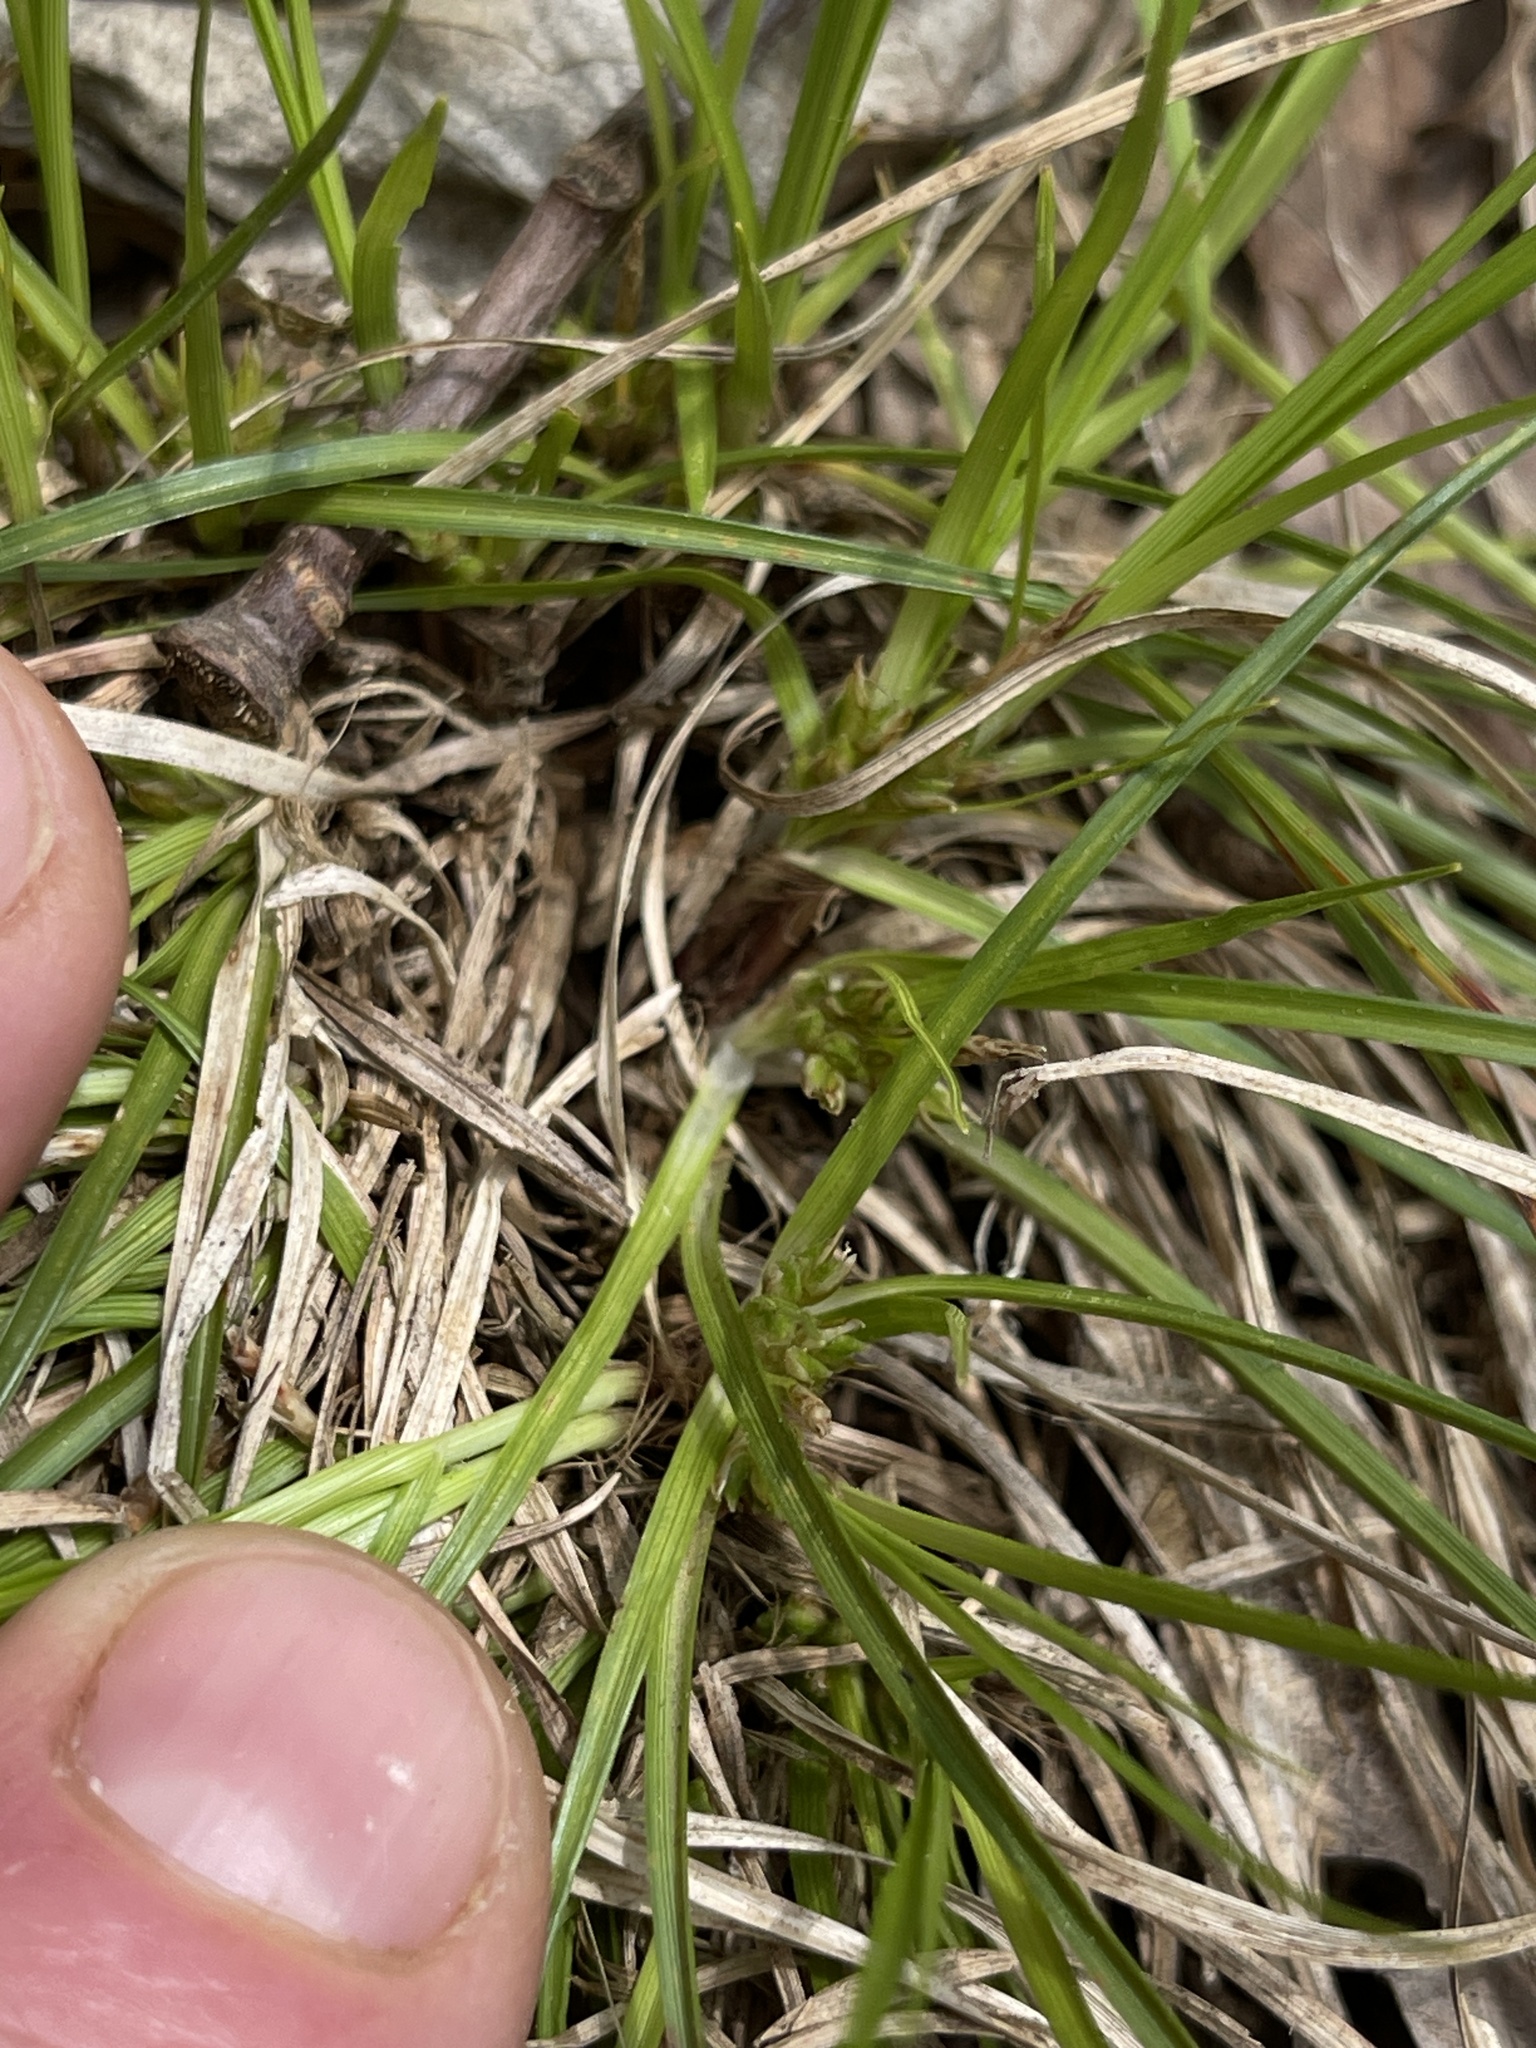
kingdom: Plantae
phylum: Tracheophyta
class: Liliopsida
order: Poales
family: Cyperaceae
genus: Carex
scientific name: Carex tonsa
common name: Bald sedge
